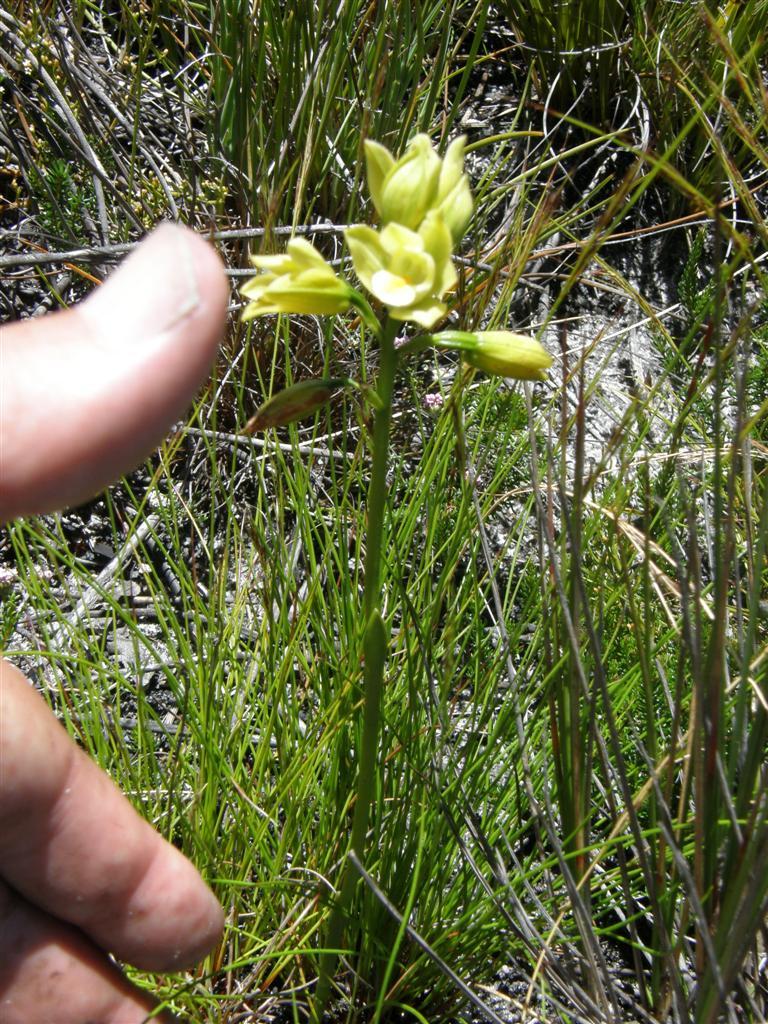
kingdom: Plantae
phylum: Tracheophyta
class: Liliopsida
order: Asparagales
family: Orchidaceae
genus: Eulophia
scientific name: Eulophia tabularis
